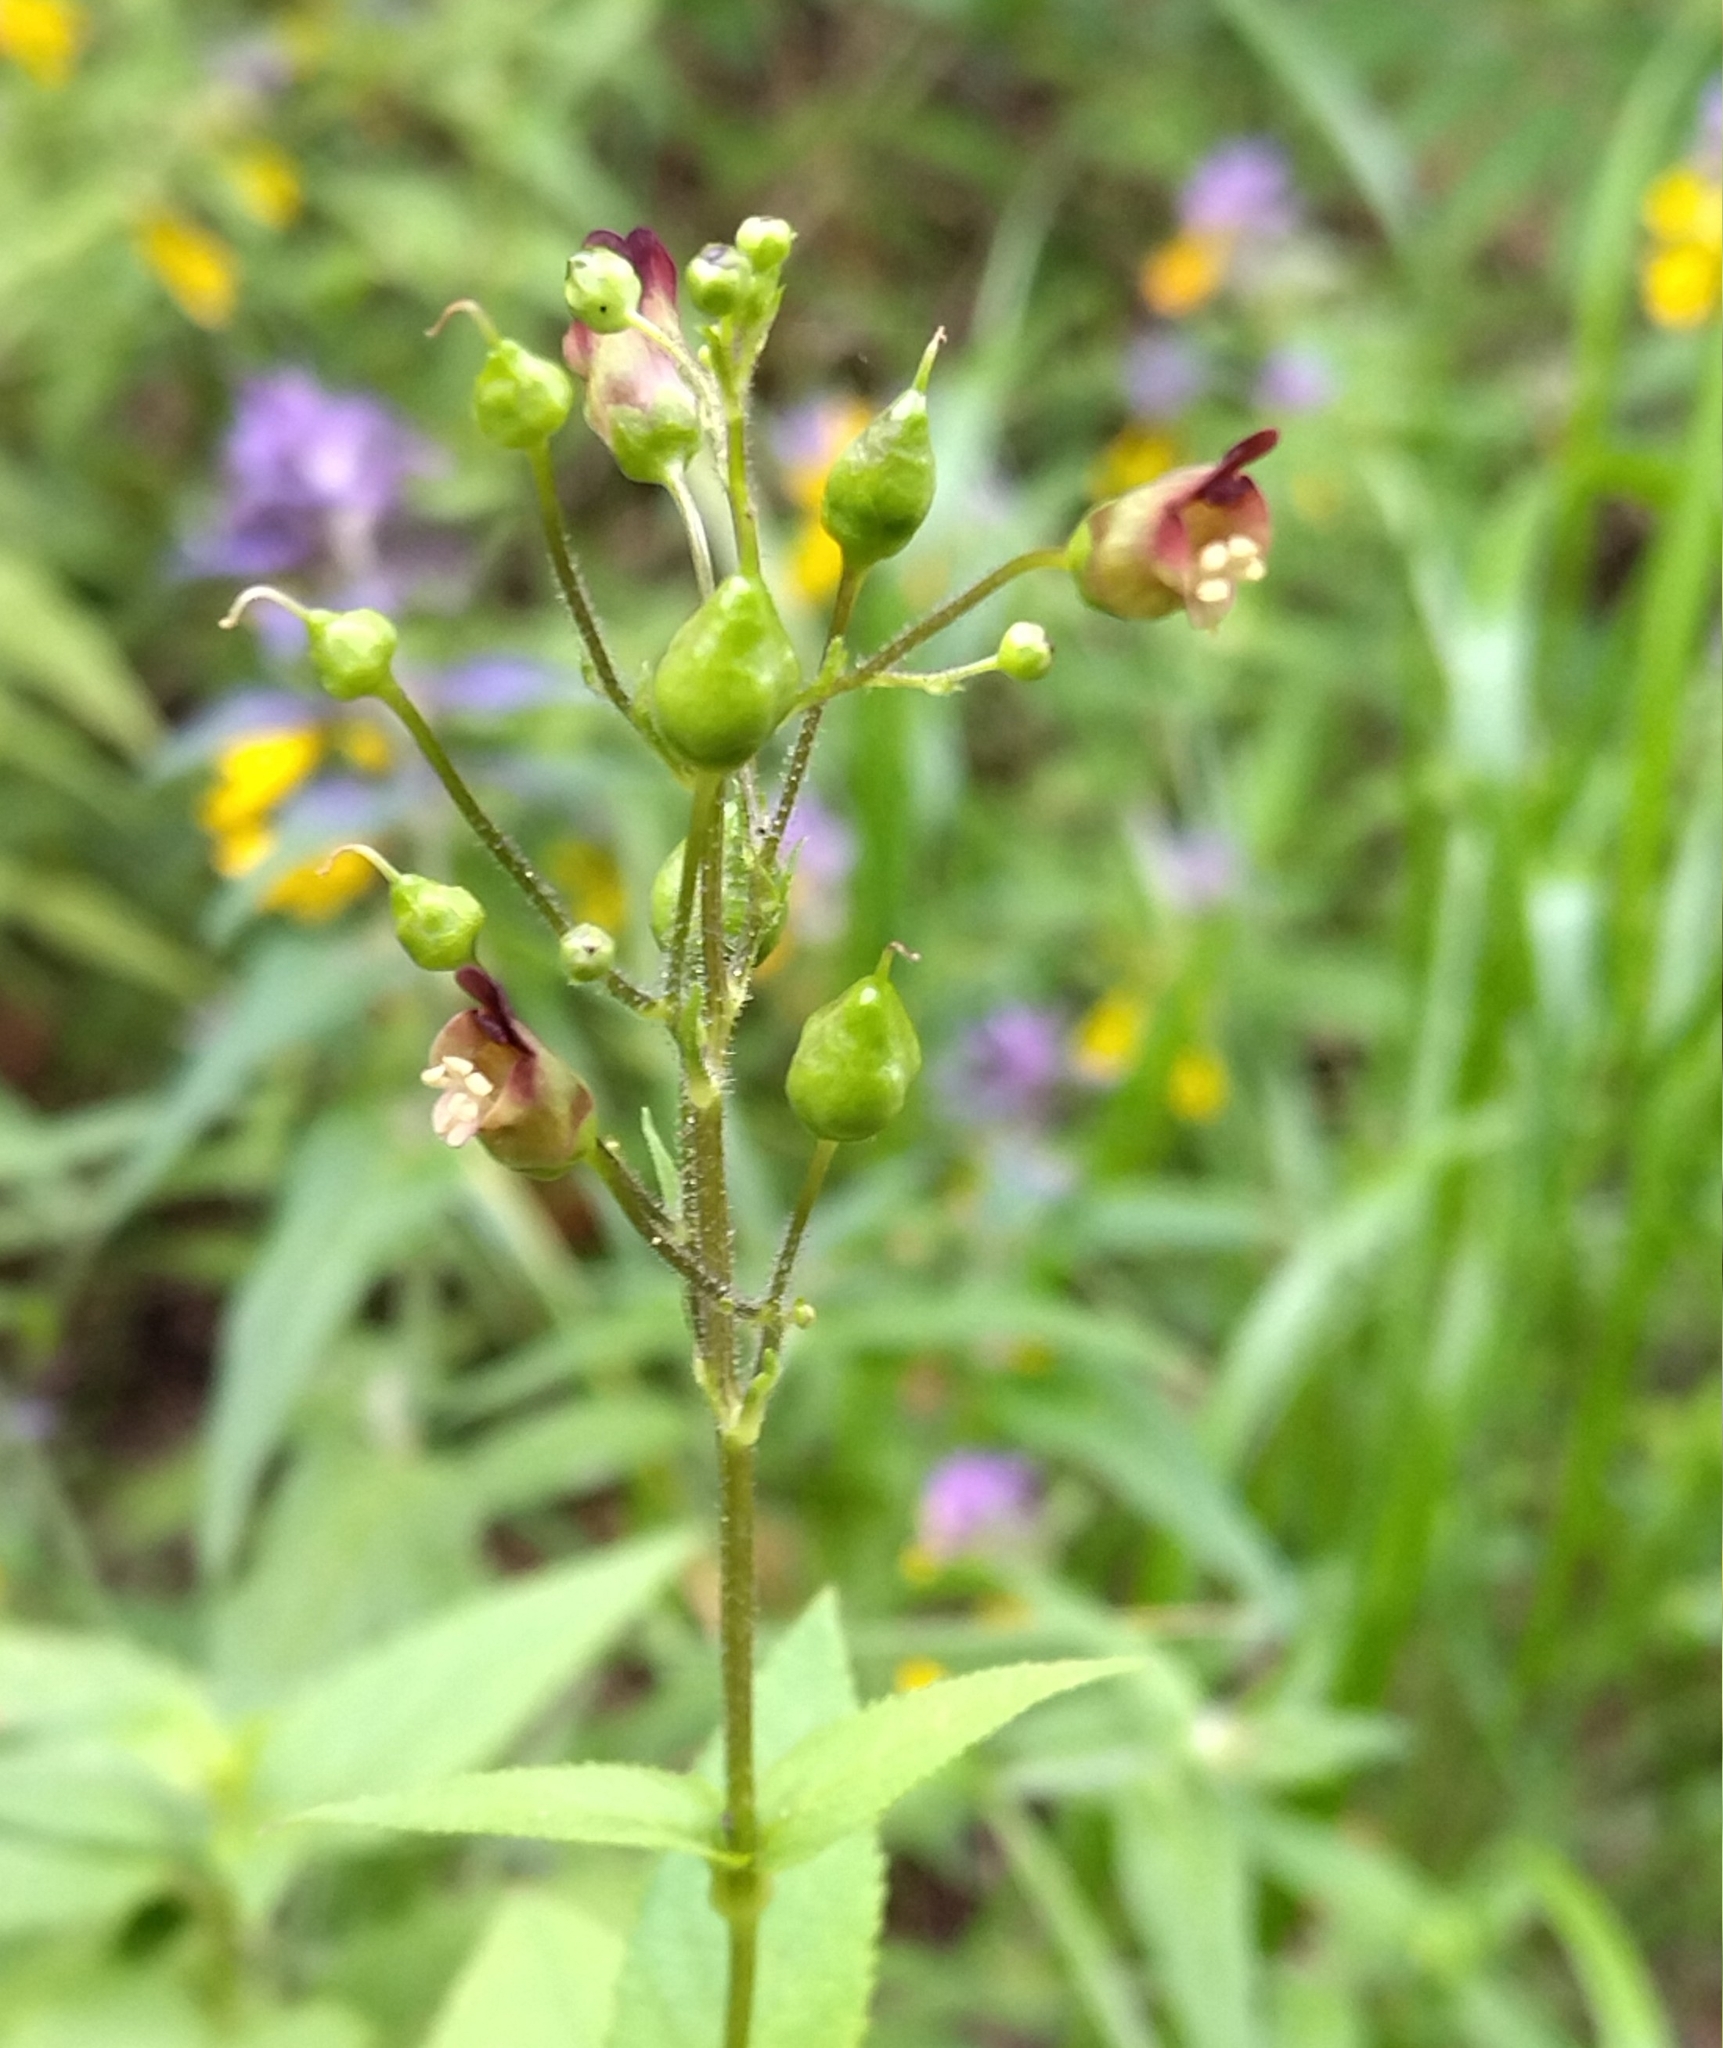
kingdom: Plantae
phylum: Tracheophyta
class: Magnoliopsida
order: Lamiales
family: Scrophulariaceae
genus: Scrophularia
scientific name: Scrophularia nodosa
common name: Common figwort
